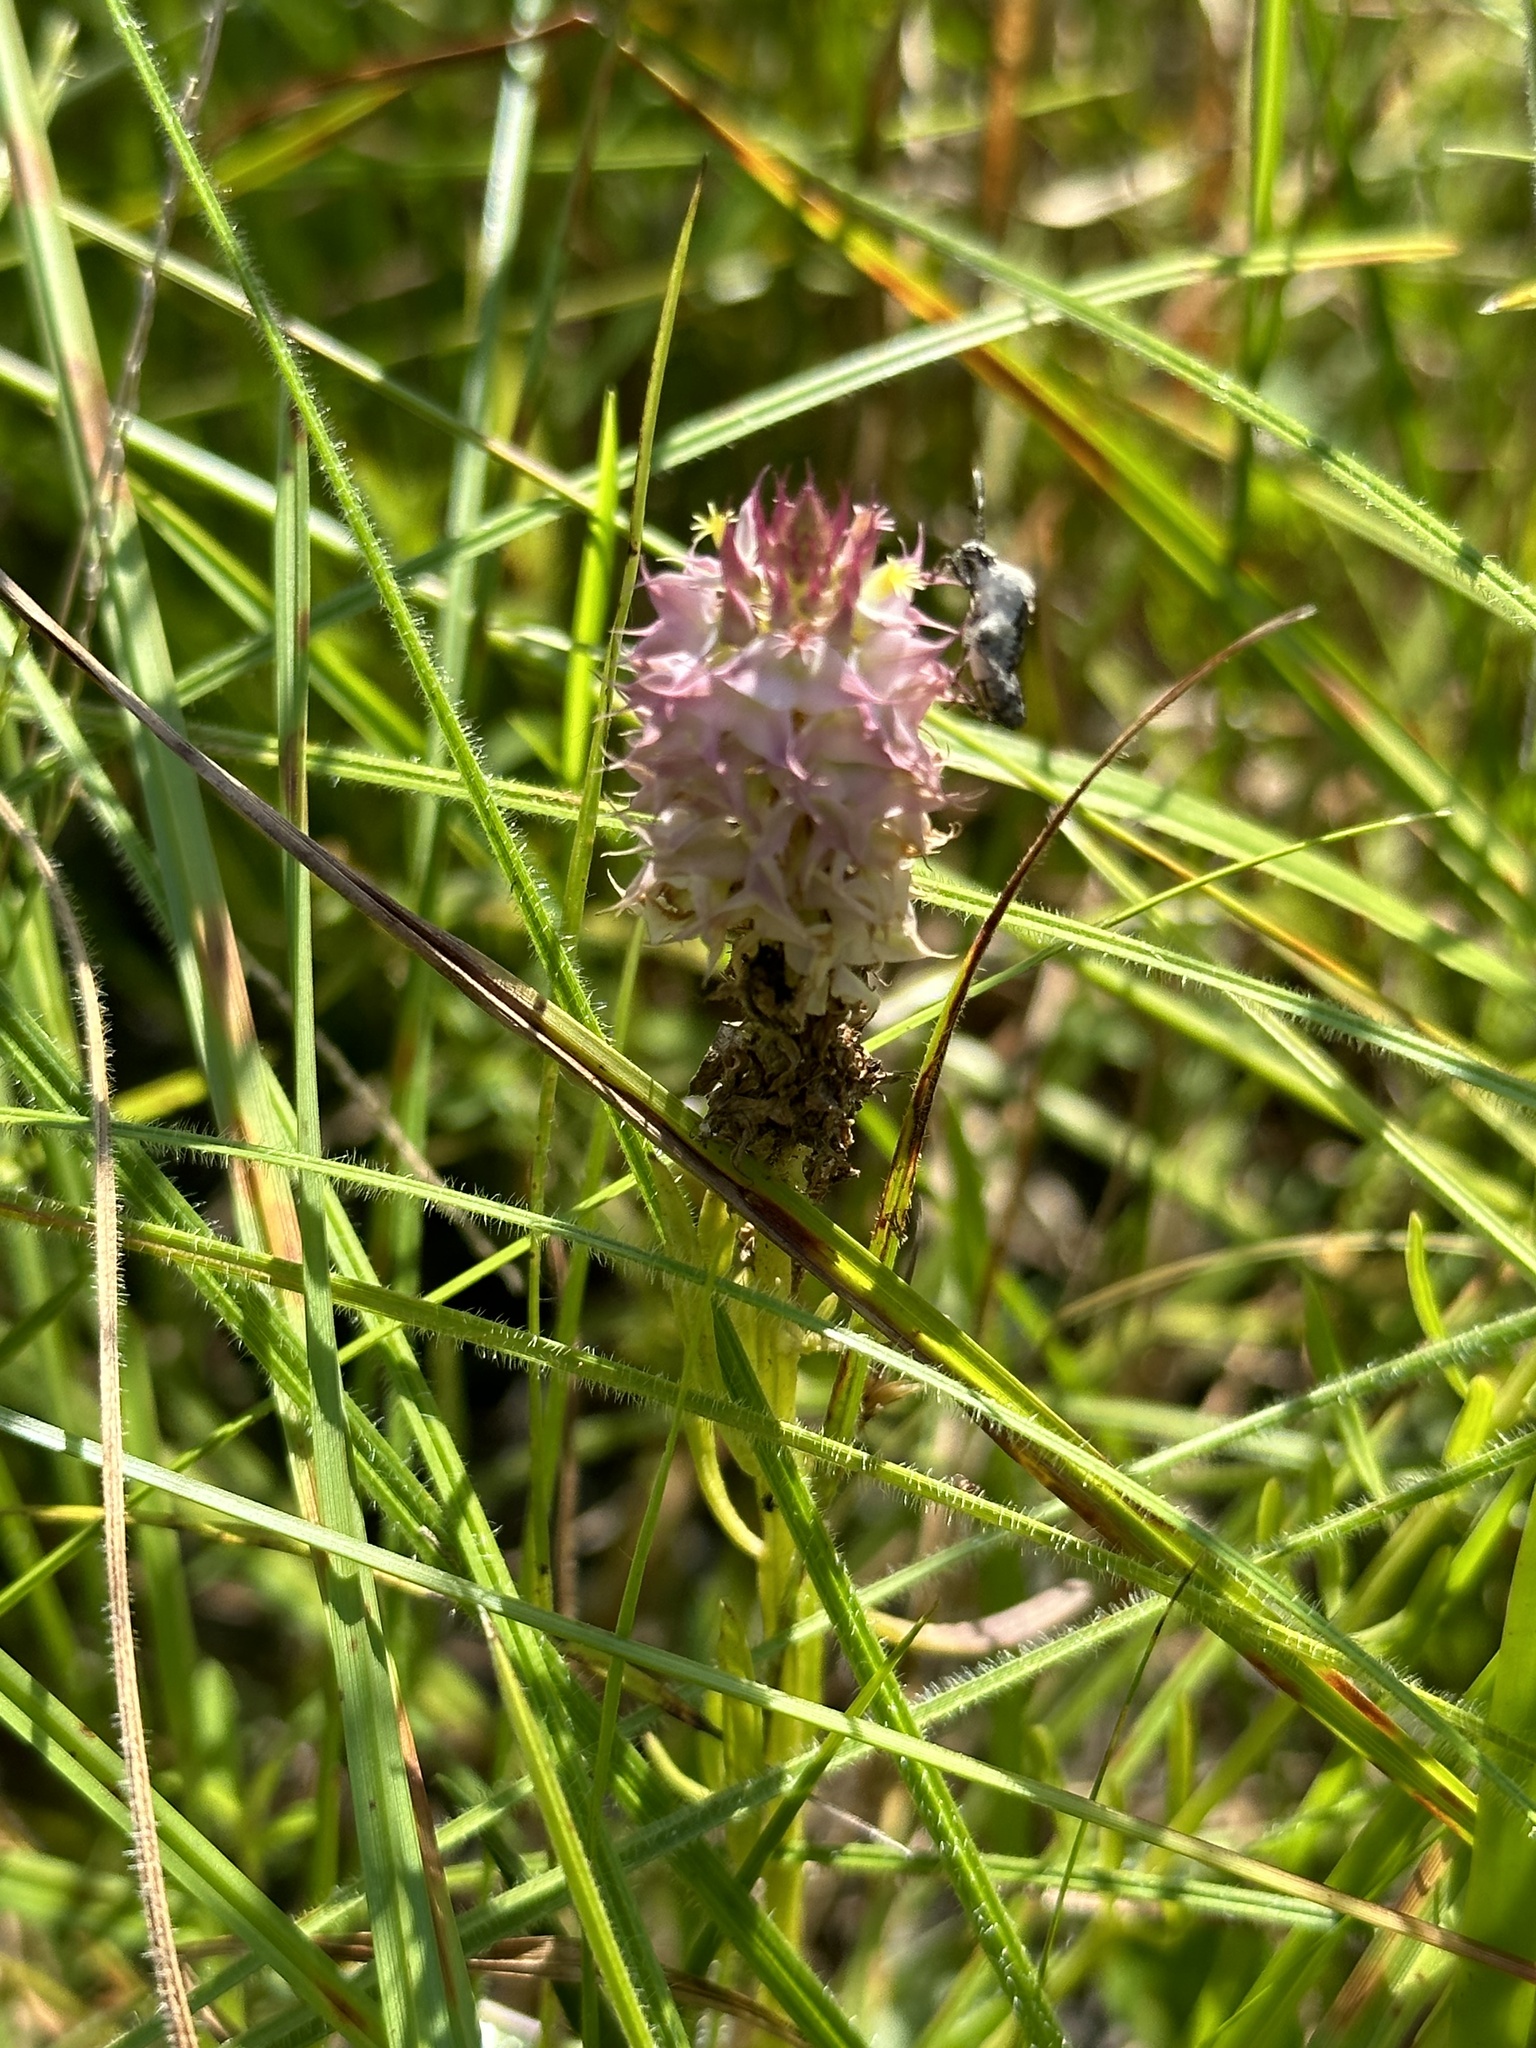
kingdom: Plantae
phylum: Tracheophyta
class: Magnoliopsida
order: Fabales
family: Polygalaceae
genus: Polygala
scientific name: Polygala cruciata
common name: Drumheads
